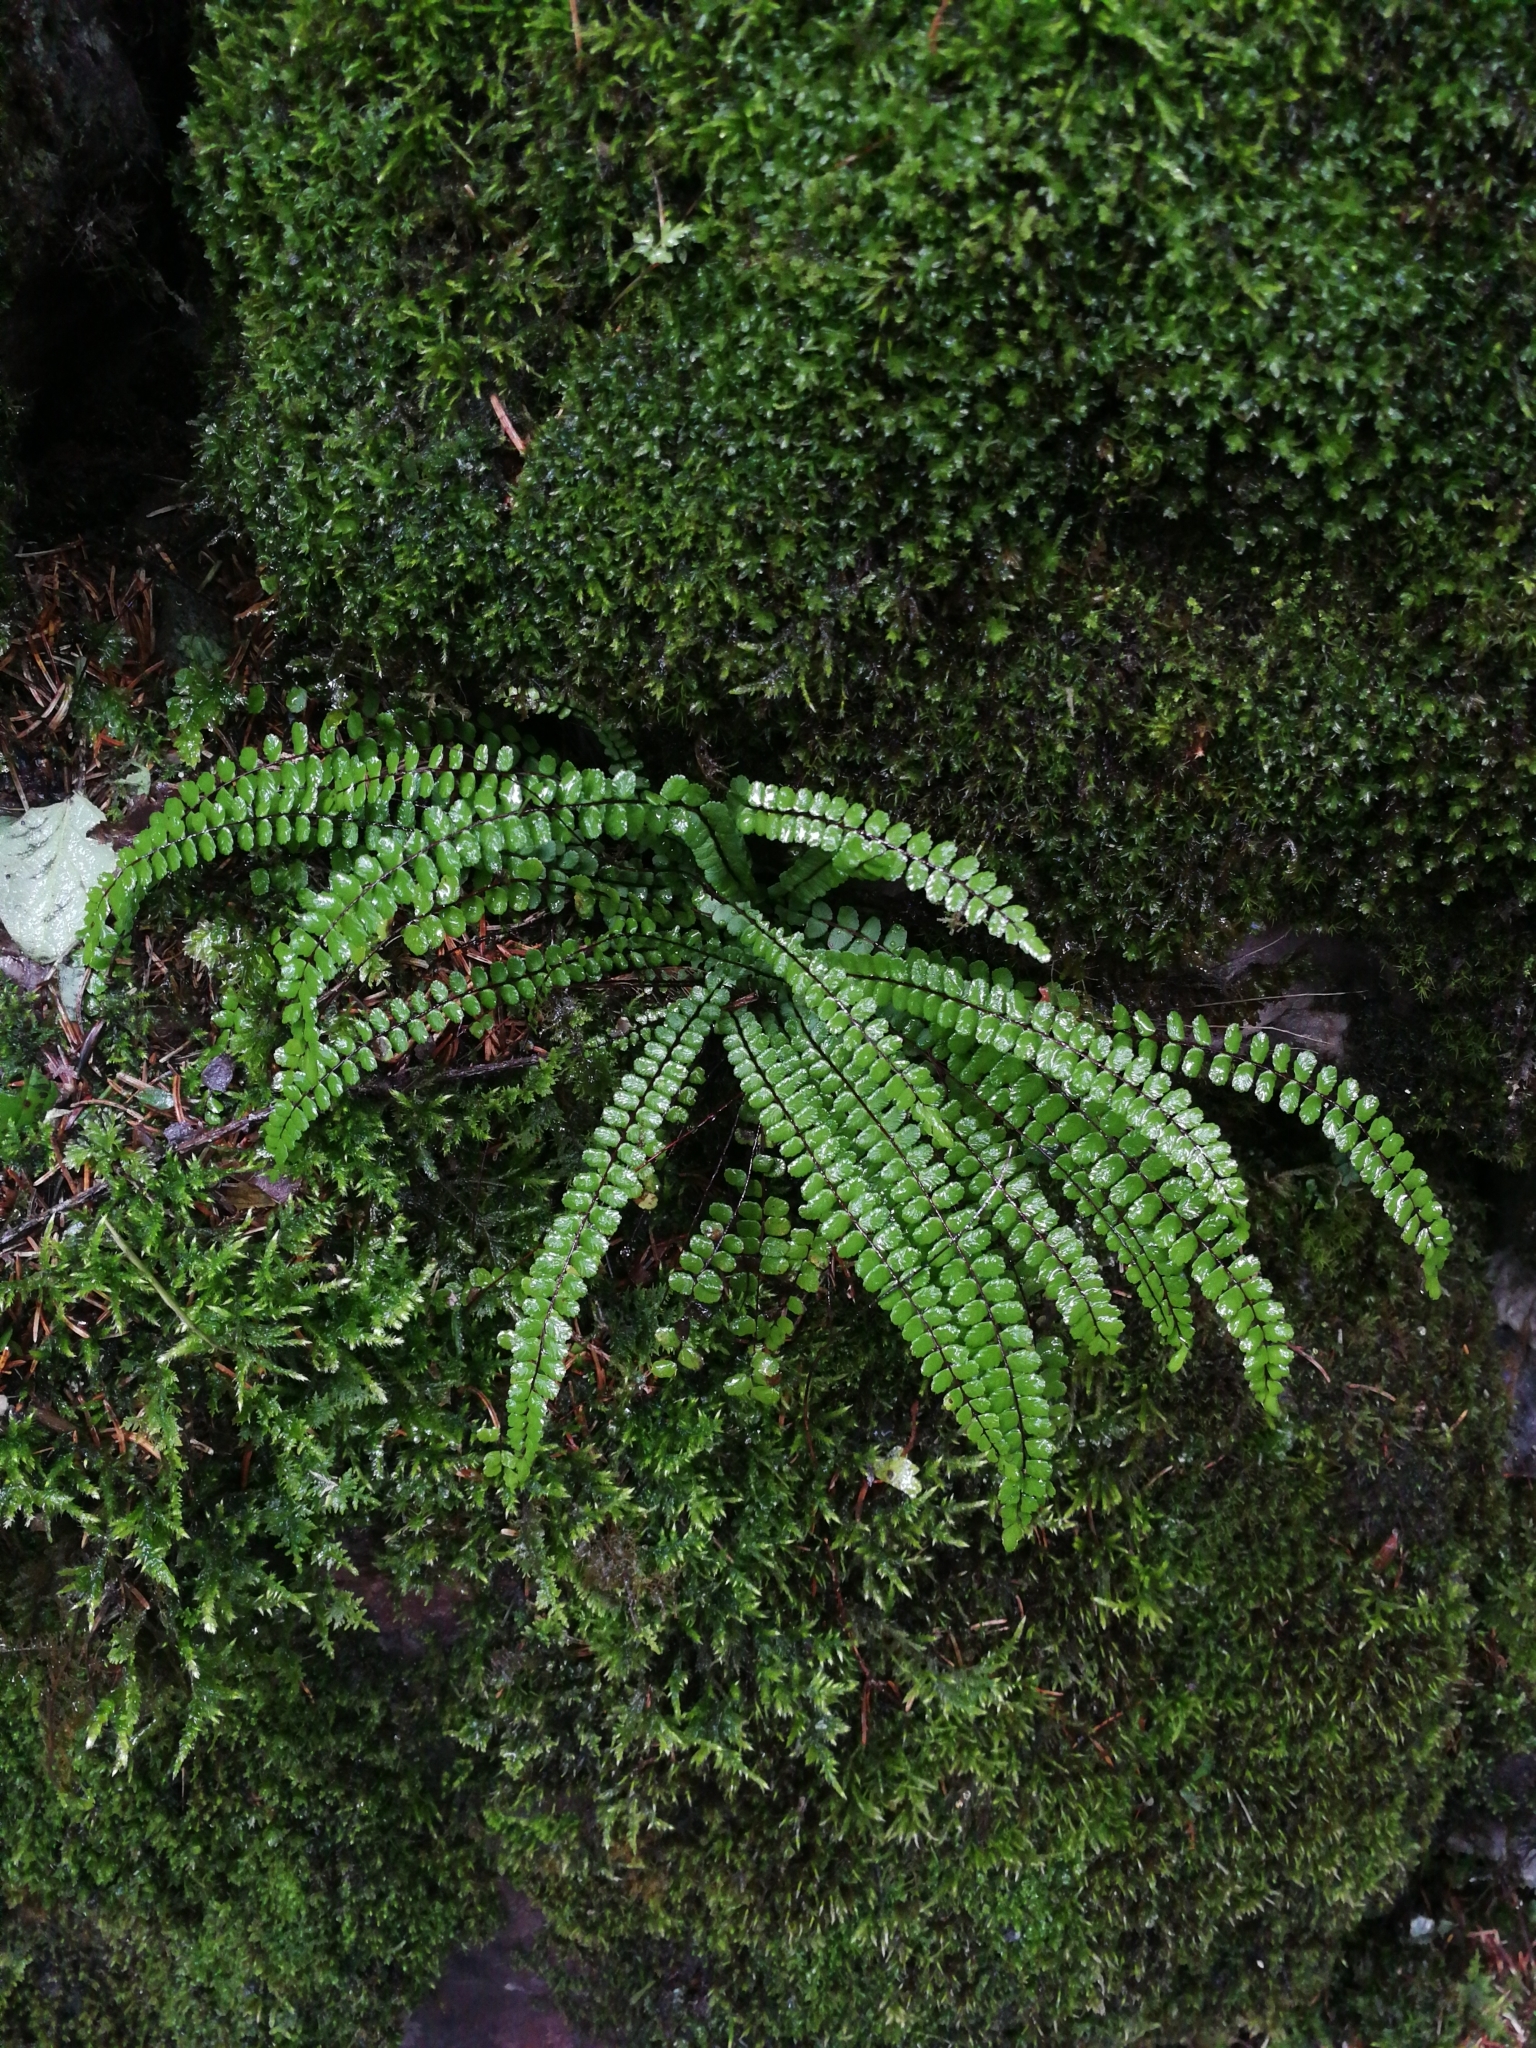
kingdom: Plantae
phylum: Tracheophyta
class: Polypodiopsida
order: Polypodiales
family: Aspleniaceae
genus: Asplenium
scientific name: Asplenium trichomanes
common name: Maidenhair spleenwort
